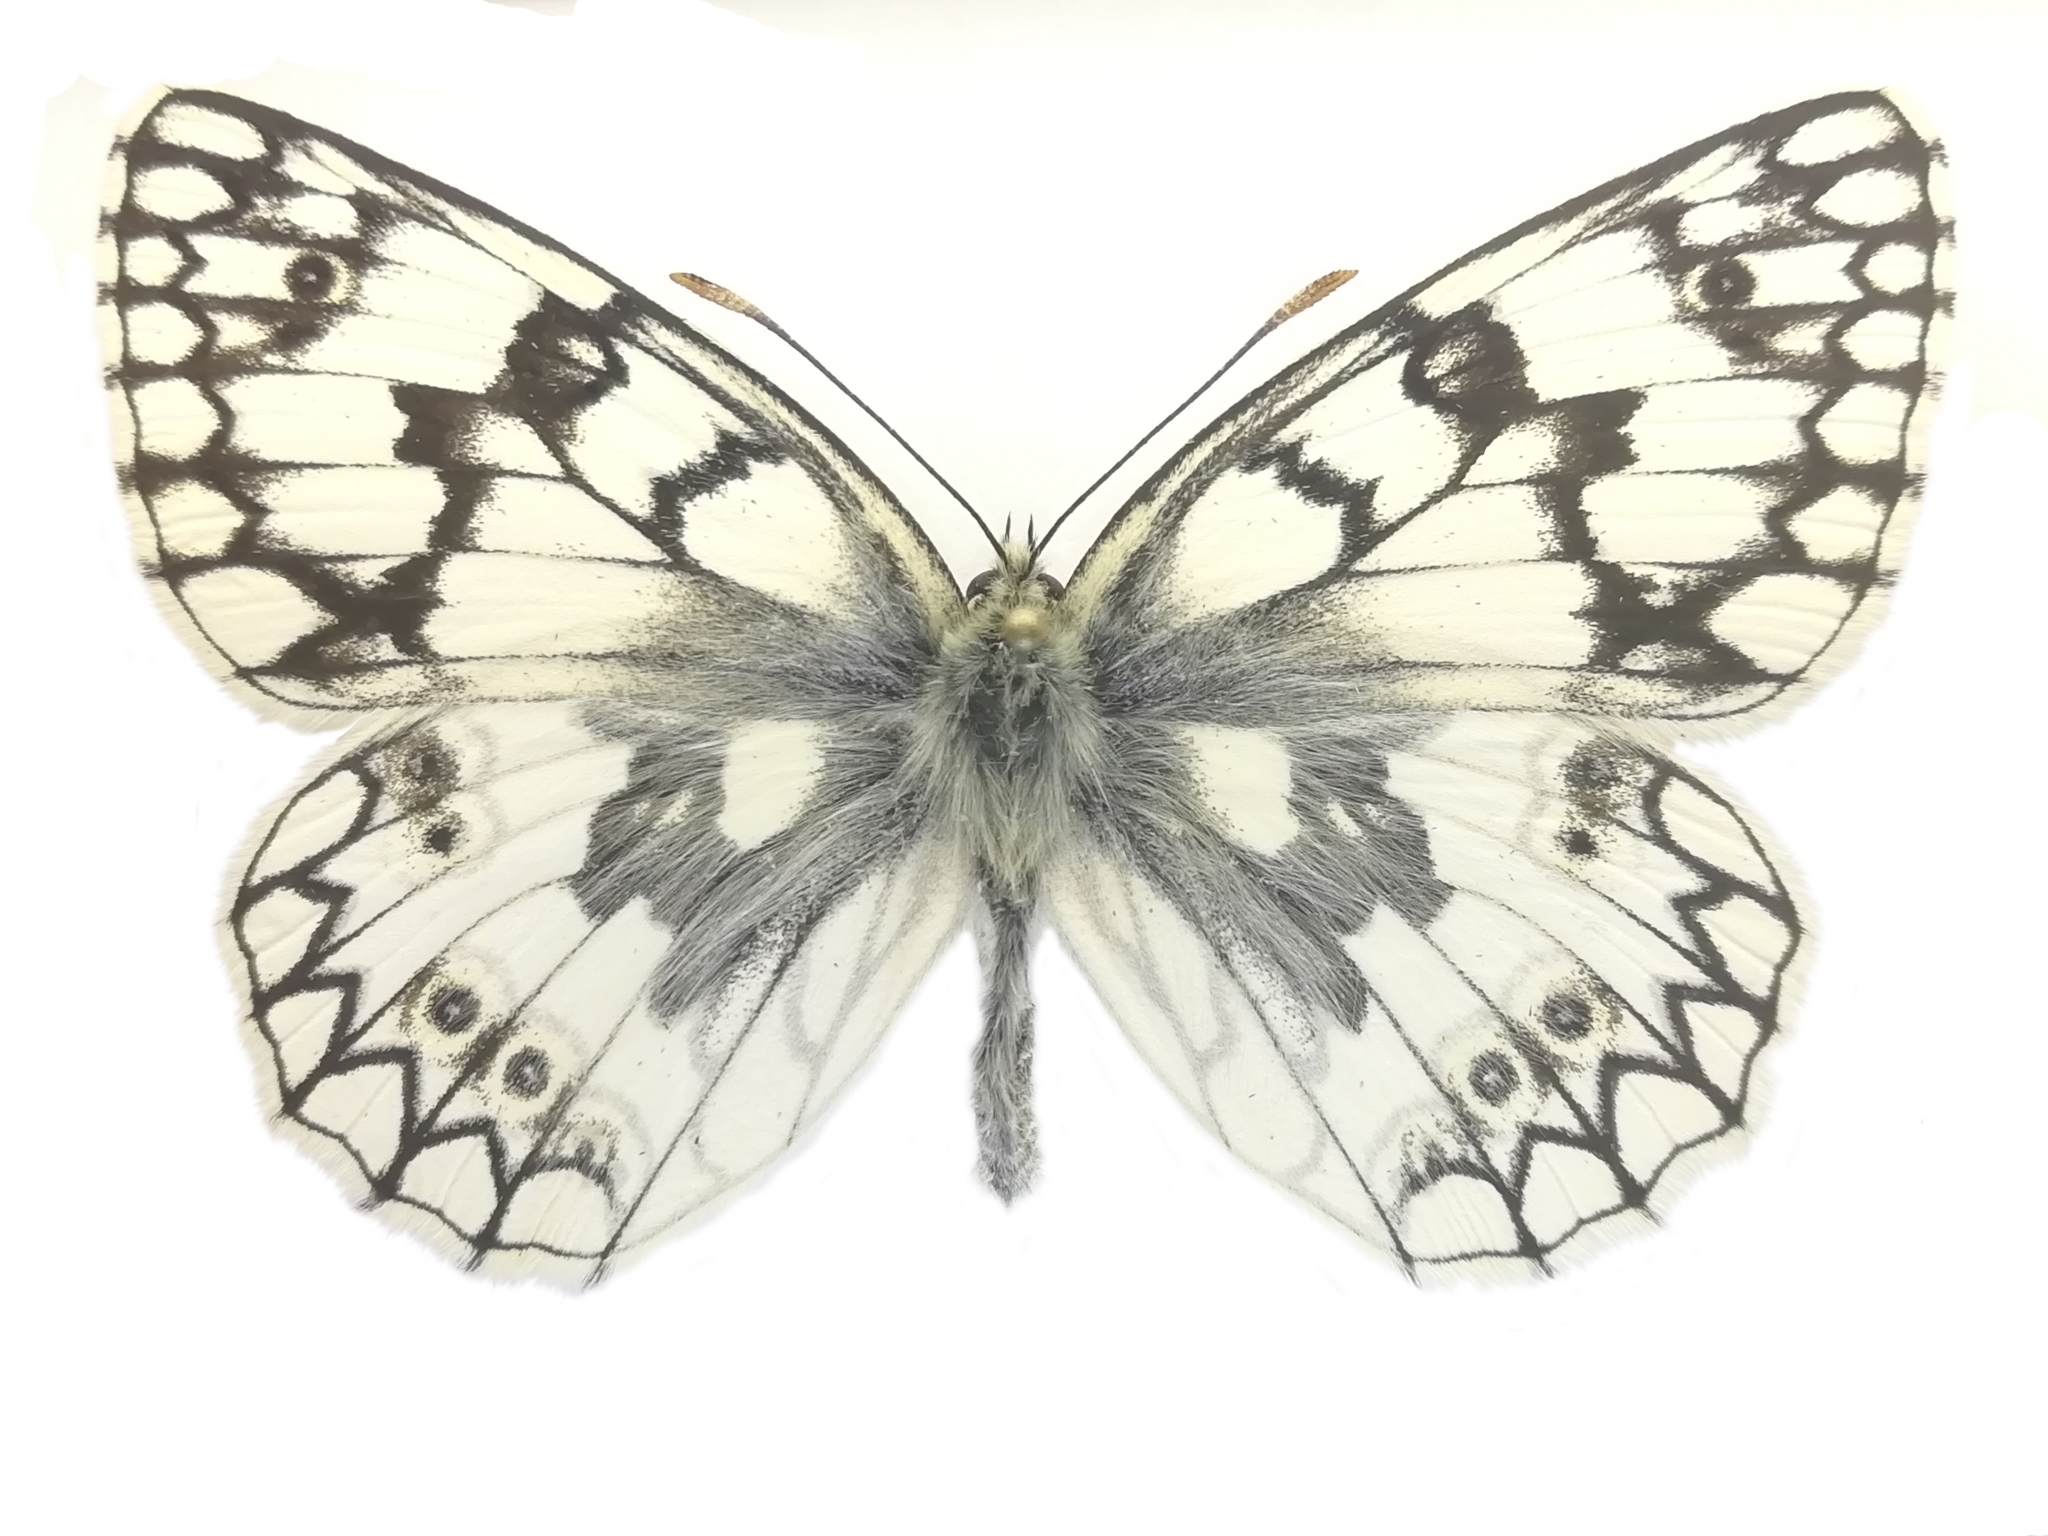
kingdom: Animalia
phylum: Arthropoda
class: Insecta
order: Lepidoptera
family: Nymphalidae
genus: Melanargia
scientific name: Melanargia japygia
